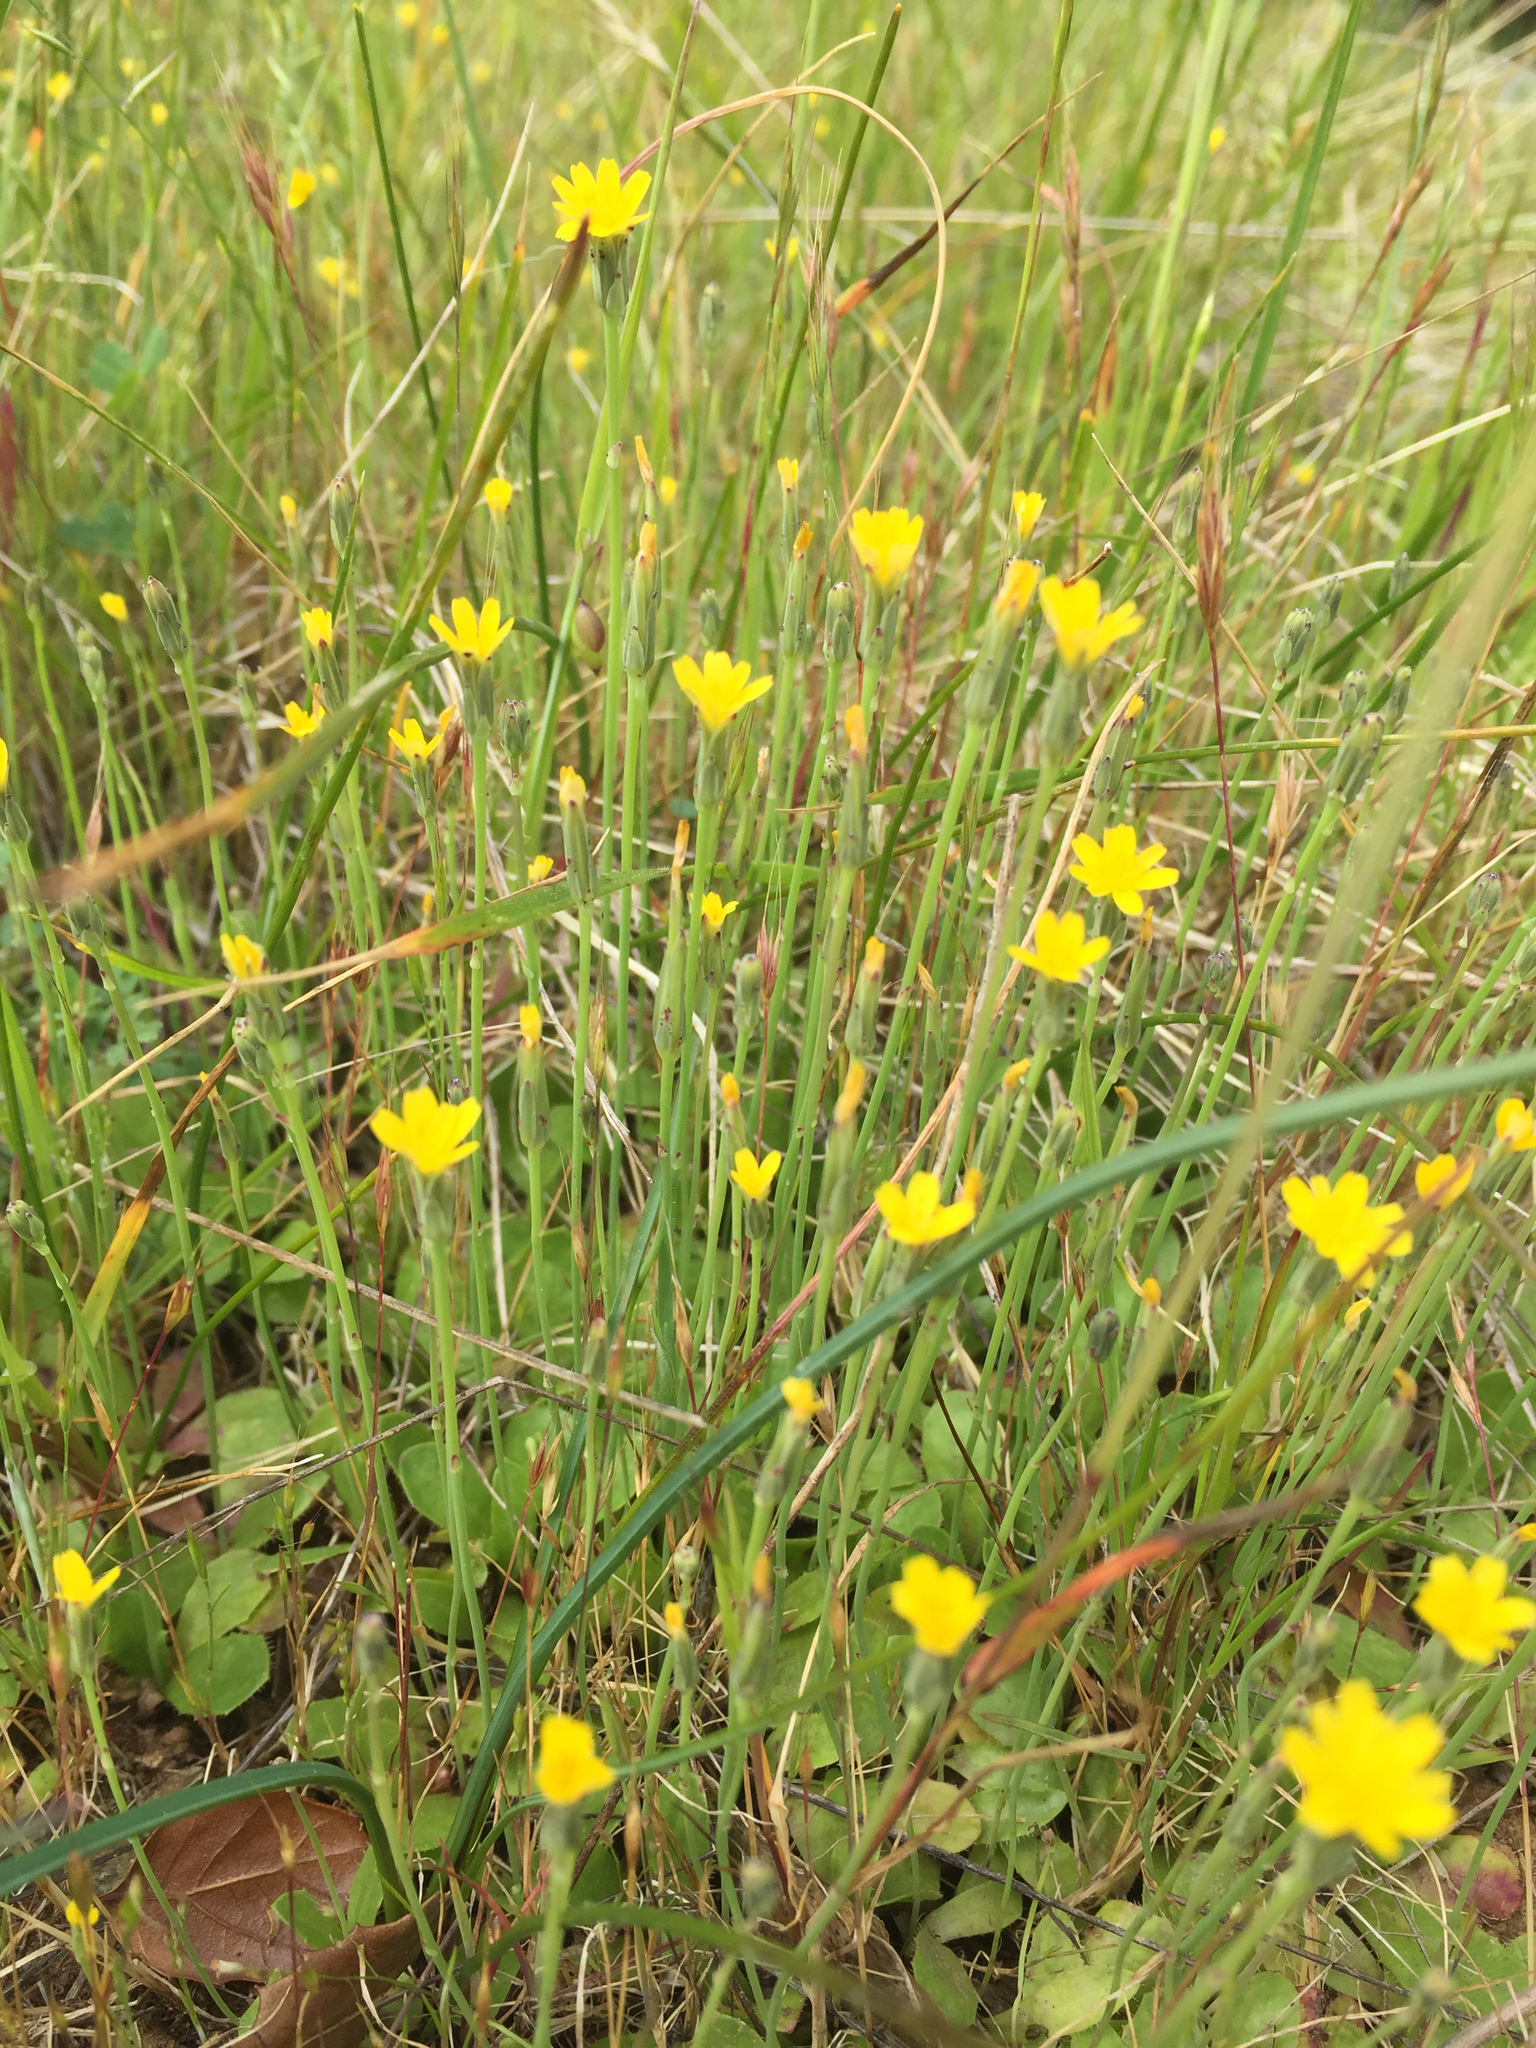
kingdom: Plantae
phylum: Tracheophyta
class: Magnoliopsida
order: Asterales
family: Asteraceae
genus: Hypochaeris
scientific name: Hypochaeris glabra
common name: Smooth catsear
